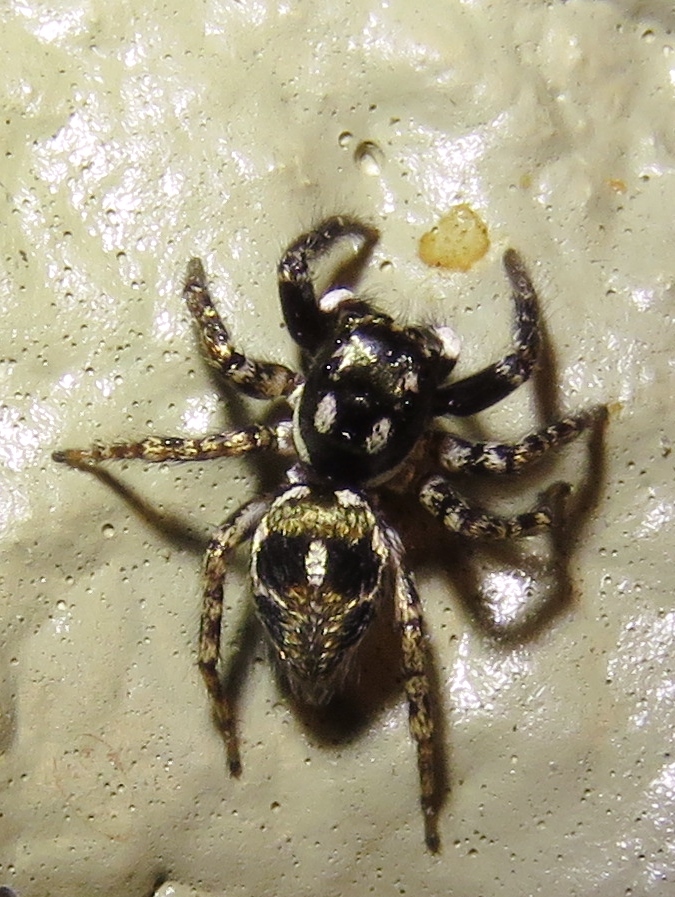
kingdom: Animalia
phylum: Arthropoda
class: Arachnida
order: Araneae
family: Salticidae
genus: Anasaitis
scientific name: Anasaitis canosa
